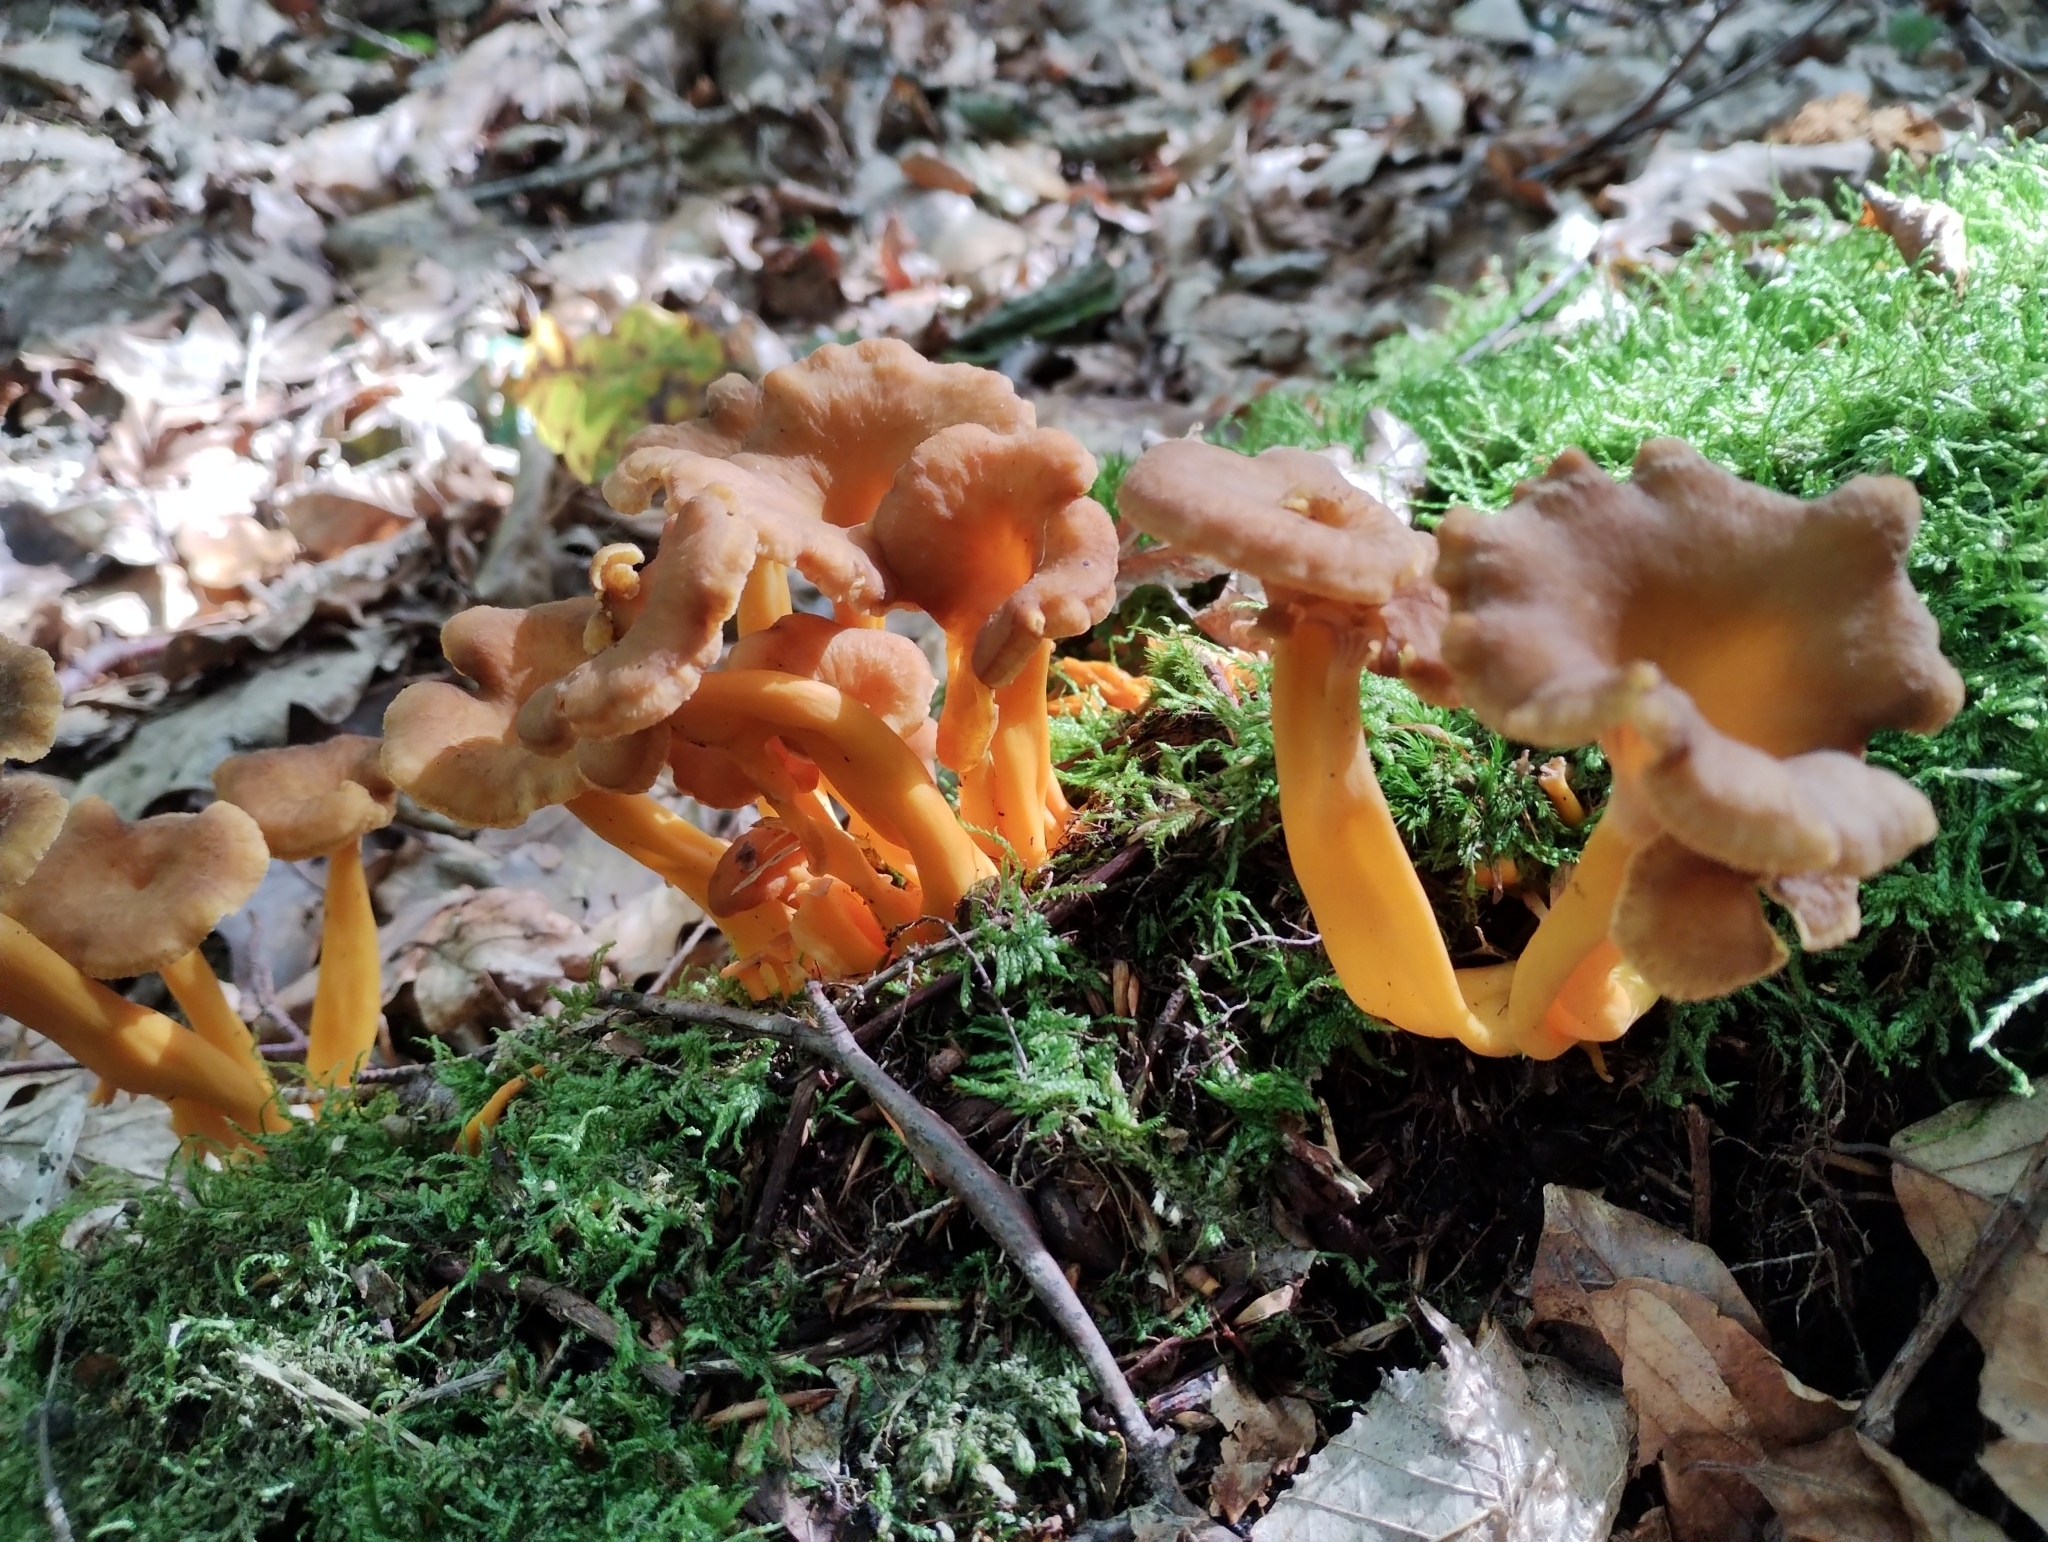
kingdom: Fungi
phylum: Basidiomycota
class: Agaricomycetes
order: Cantharellales
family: Hydnaceae
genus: Craterellus
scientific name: Craterellus tubaeformis
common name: Yellowfoot
